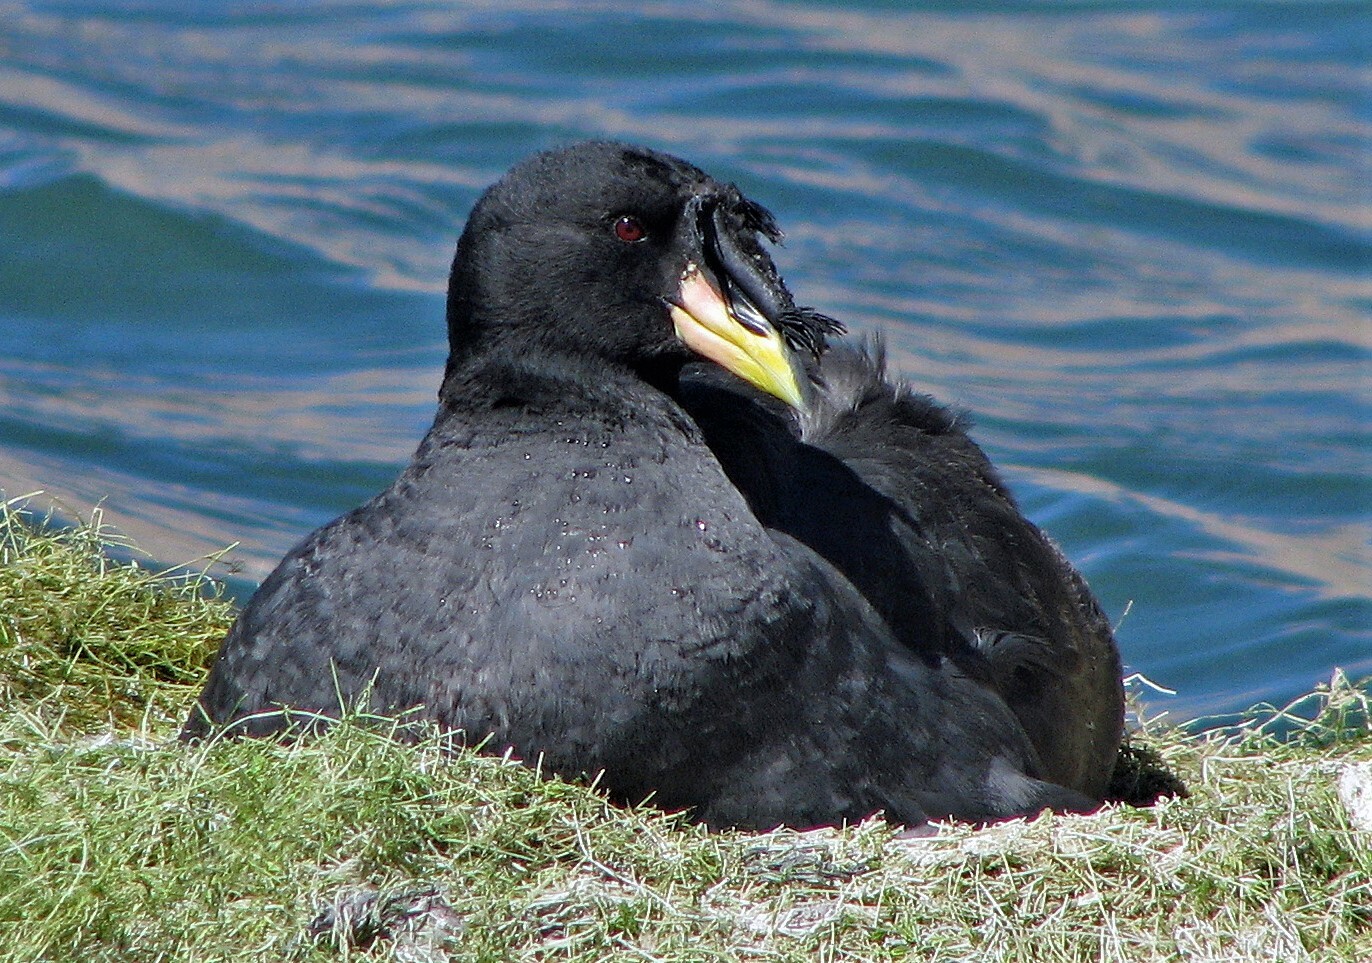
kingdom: Animalia
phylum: Chordata
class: Aves
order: Gruiformes
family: Rallidae
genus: Fulica
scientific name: Fulica cornuta
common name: Horned coot
